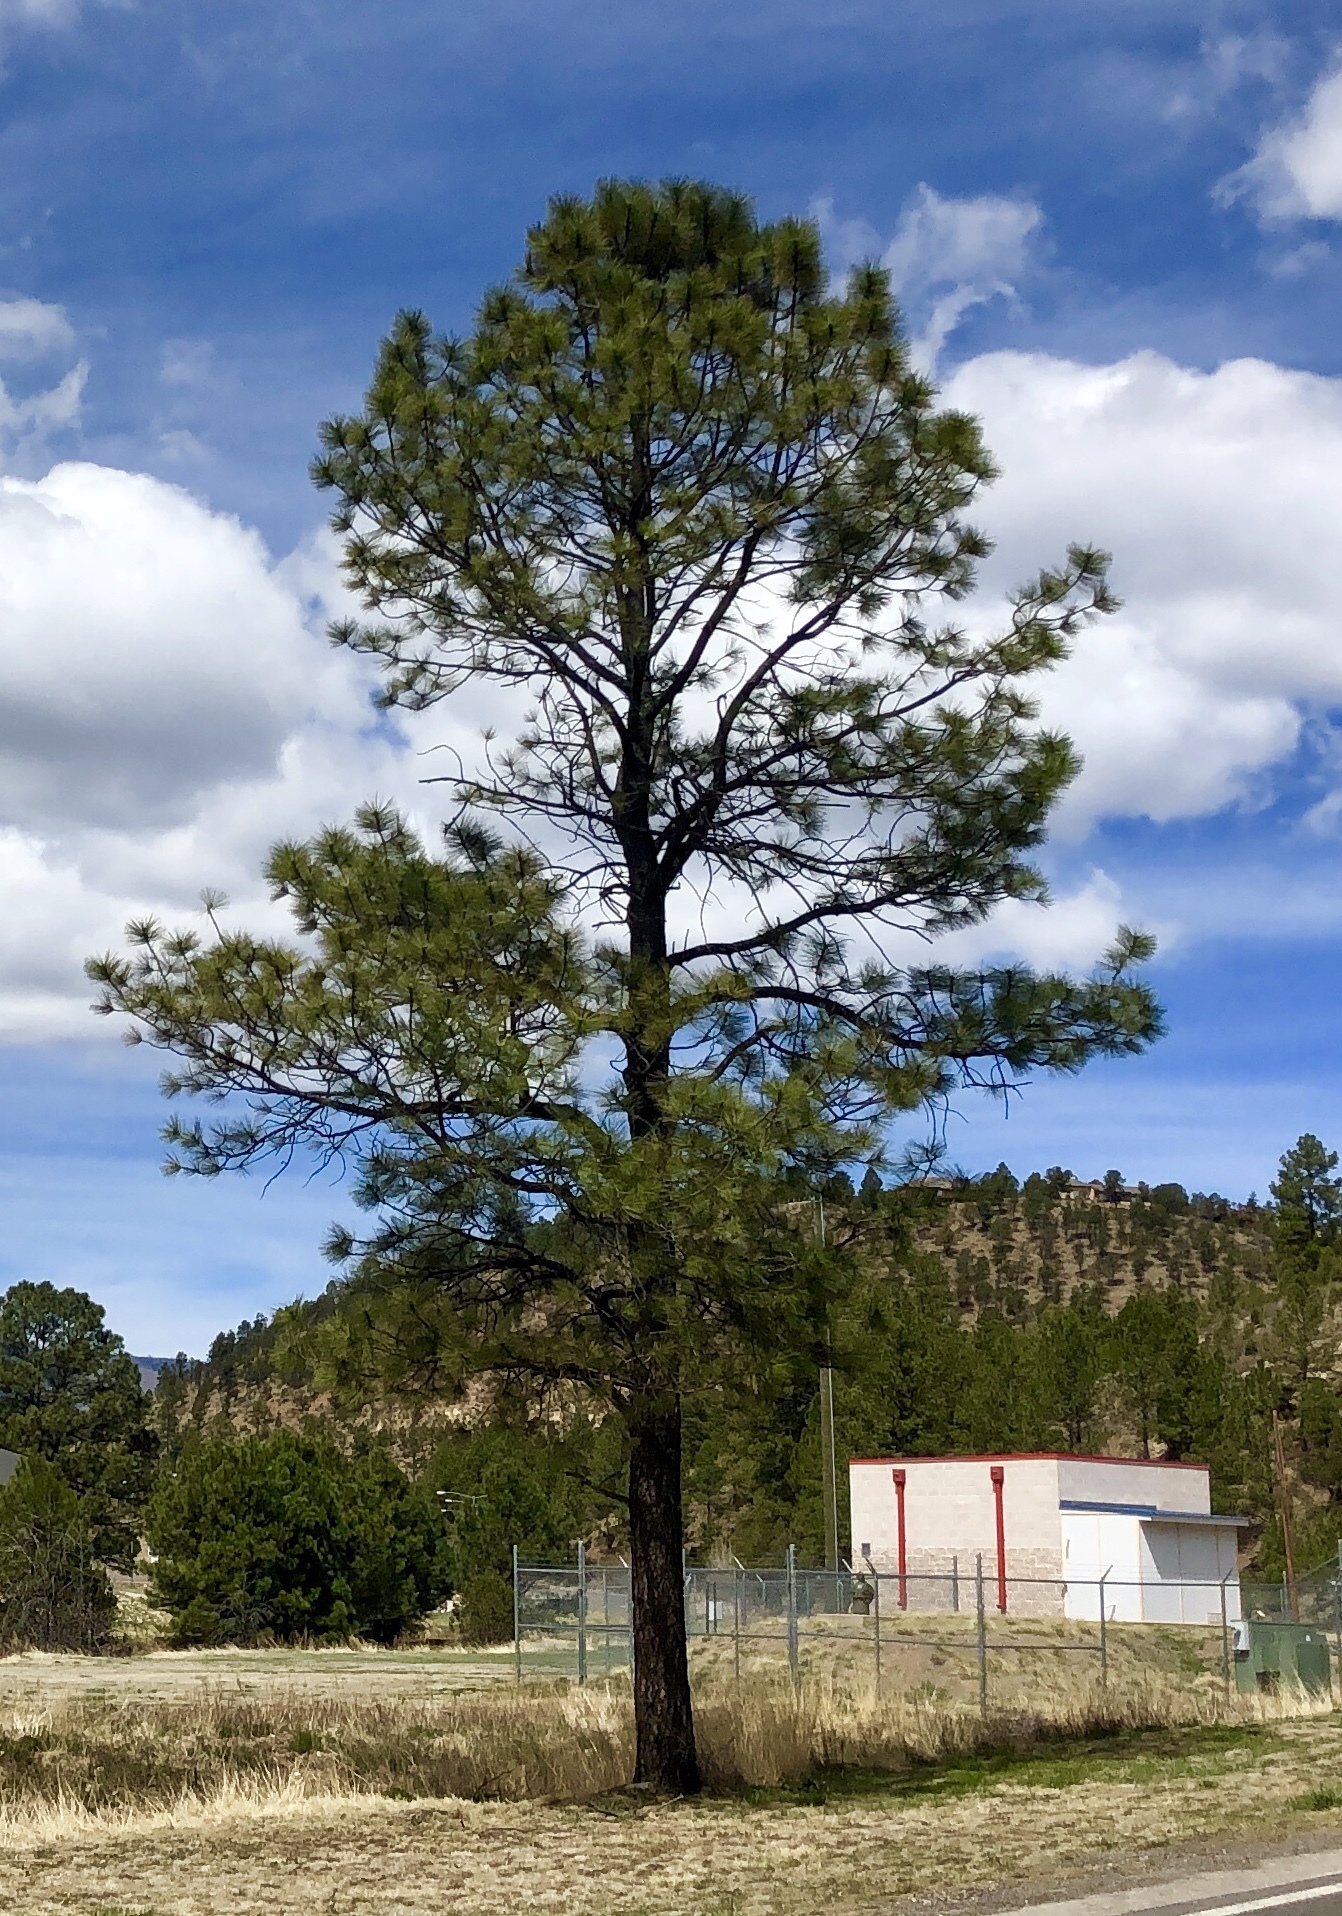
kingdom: Plantae
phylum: Tracheophyta
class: Pinopsida
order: Pinales
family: Pinaceae
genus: Pinus
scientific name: Pinus ponderosa
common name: Western yellow-pine
